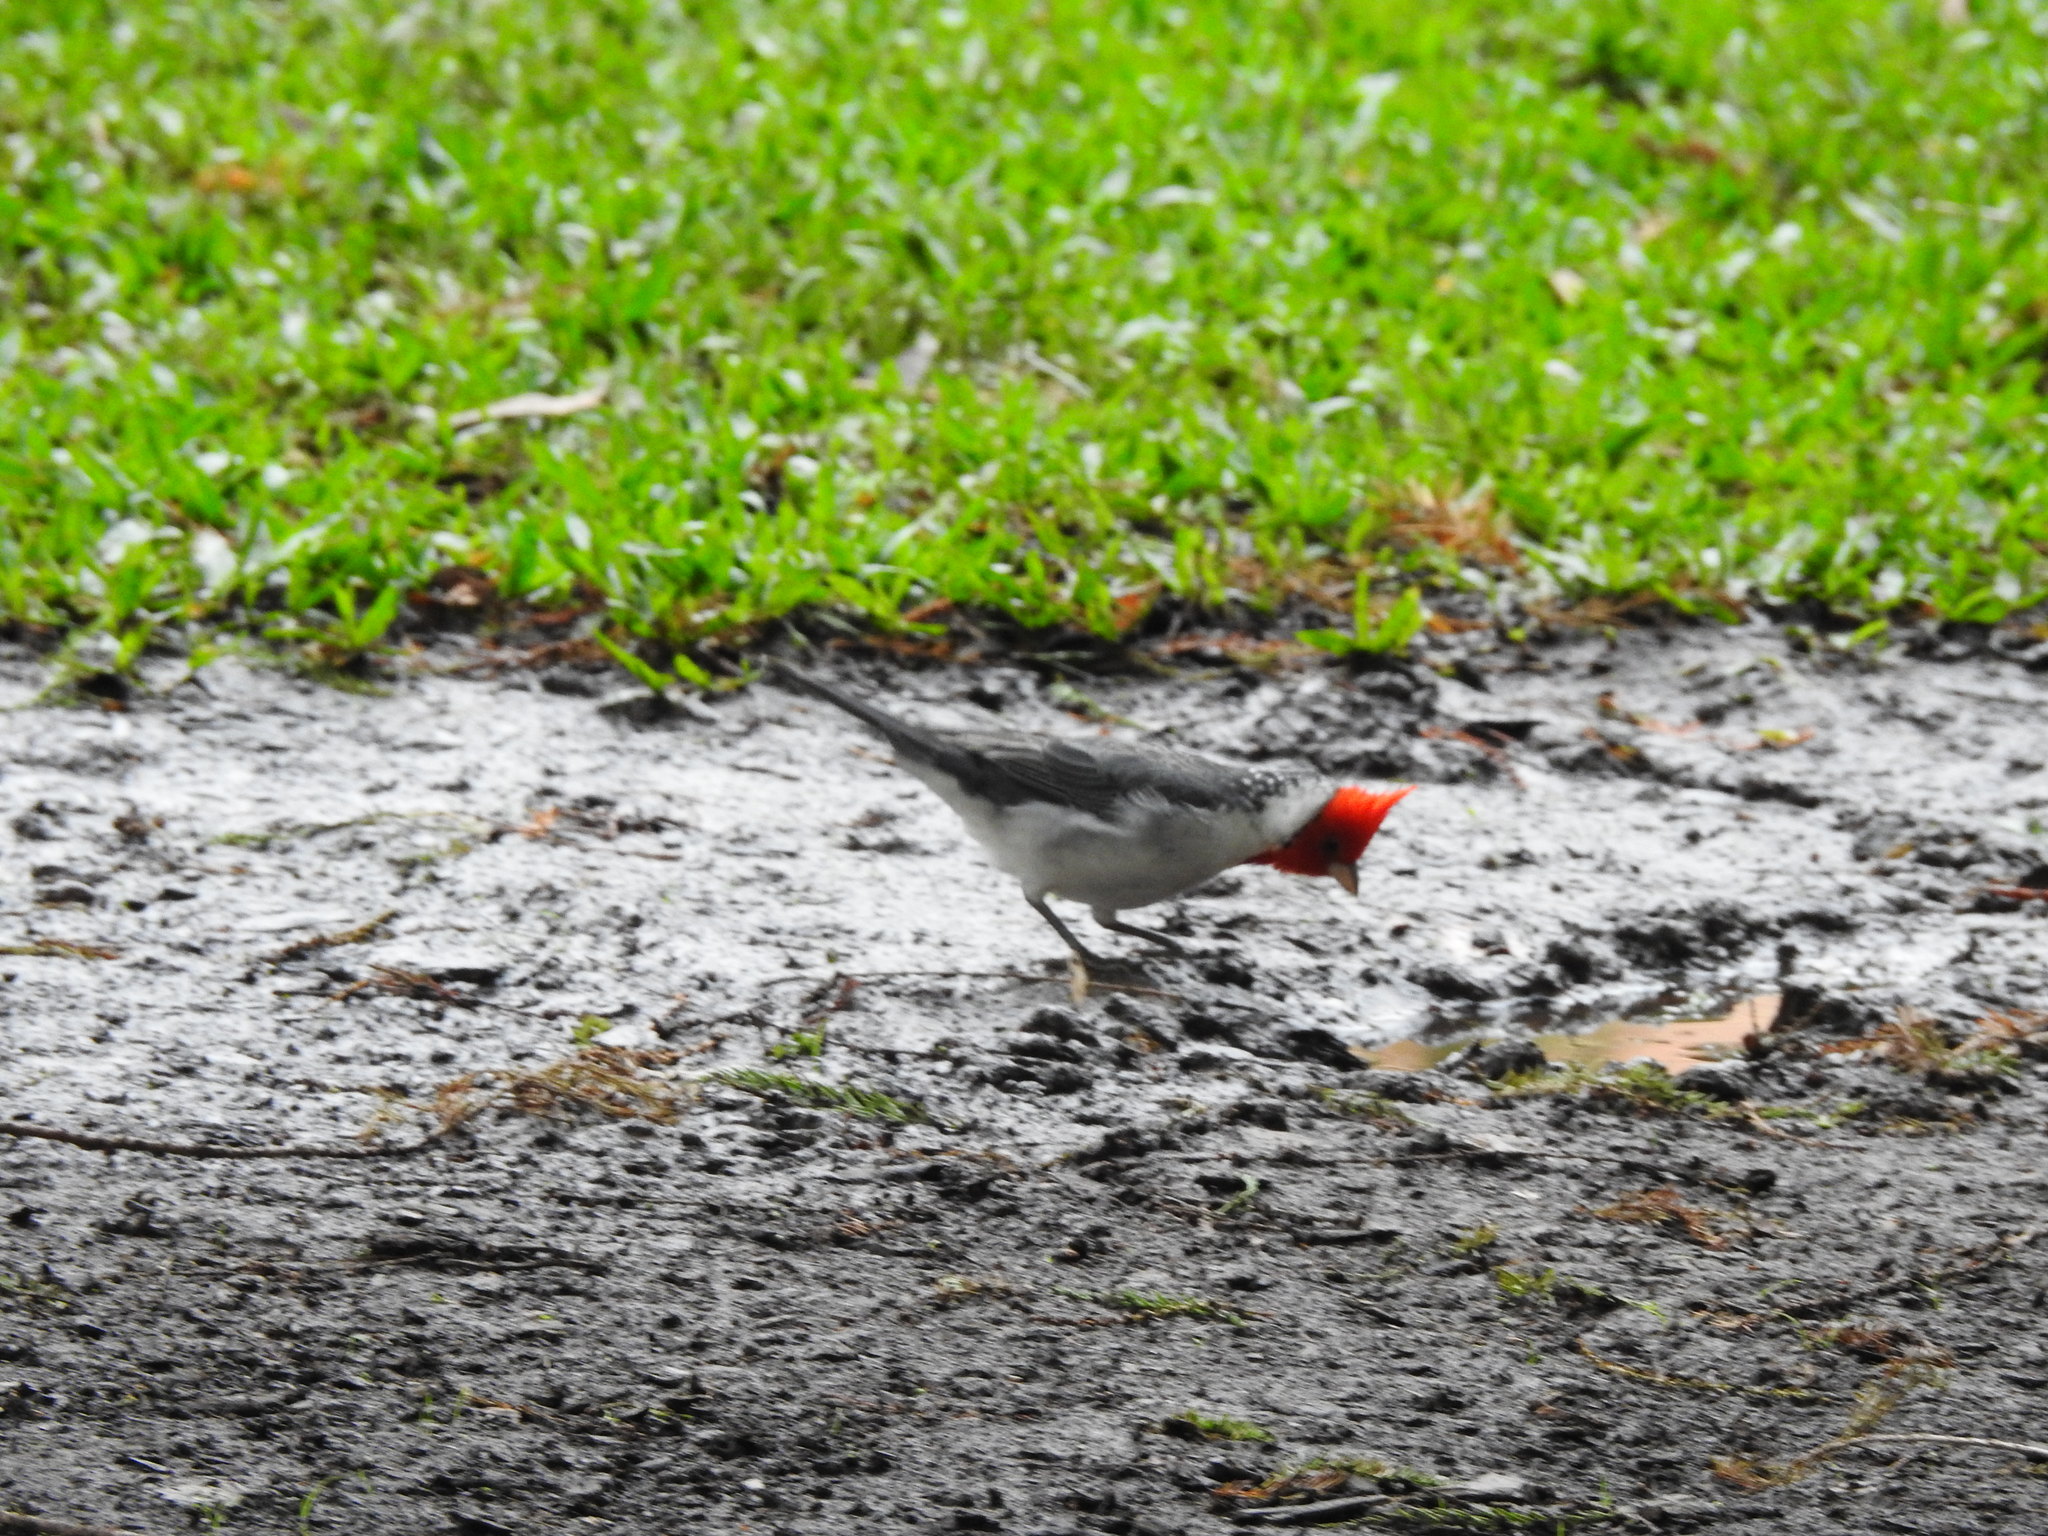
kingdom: Animalia
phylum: Chordata
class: Aves
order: Passeriformes
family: Thraupidae
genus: Paroaria
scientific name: Paroaria coronata
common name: Red-crested cardinal
